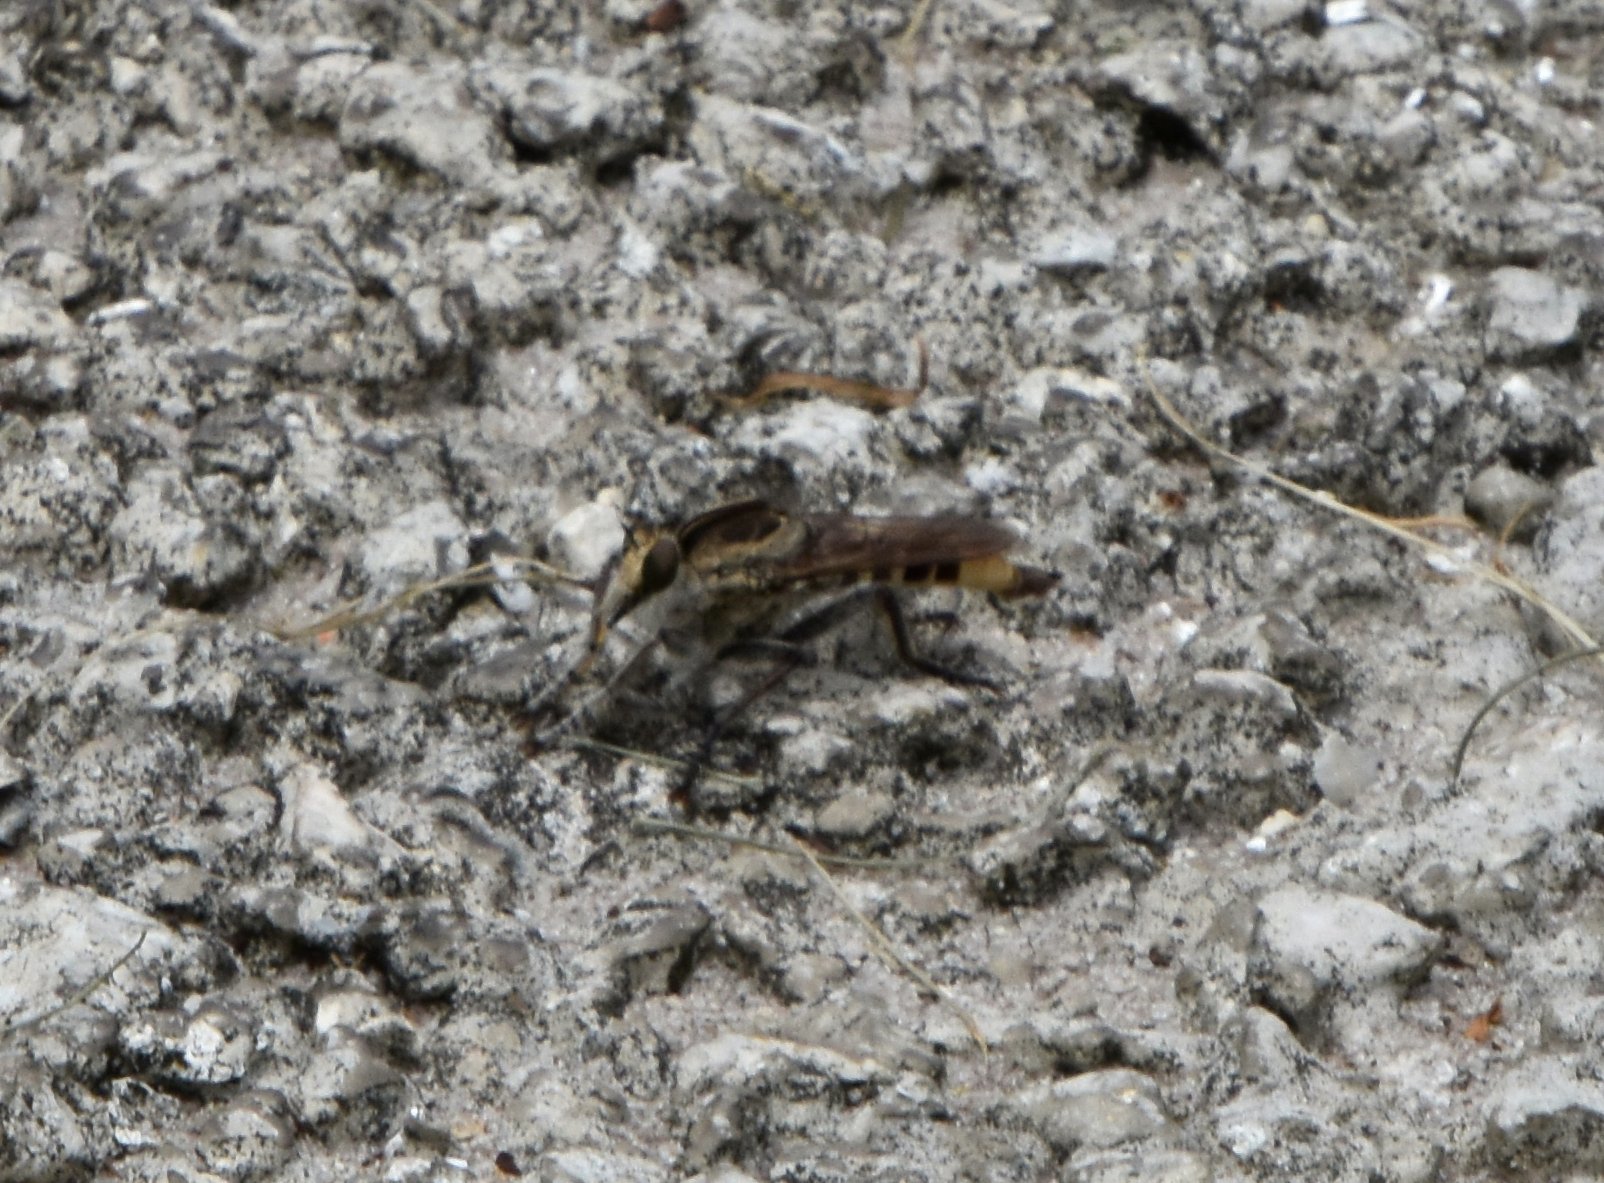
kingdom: Animalia
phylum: Arthropoda
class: Insecta
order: Diptera
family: Asilidae
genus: Triorla
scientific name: Triorla interrupta
